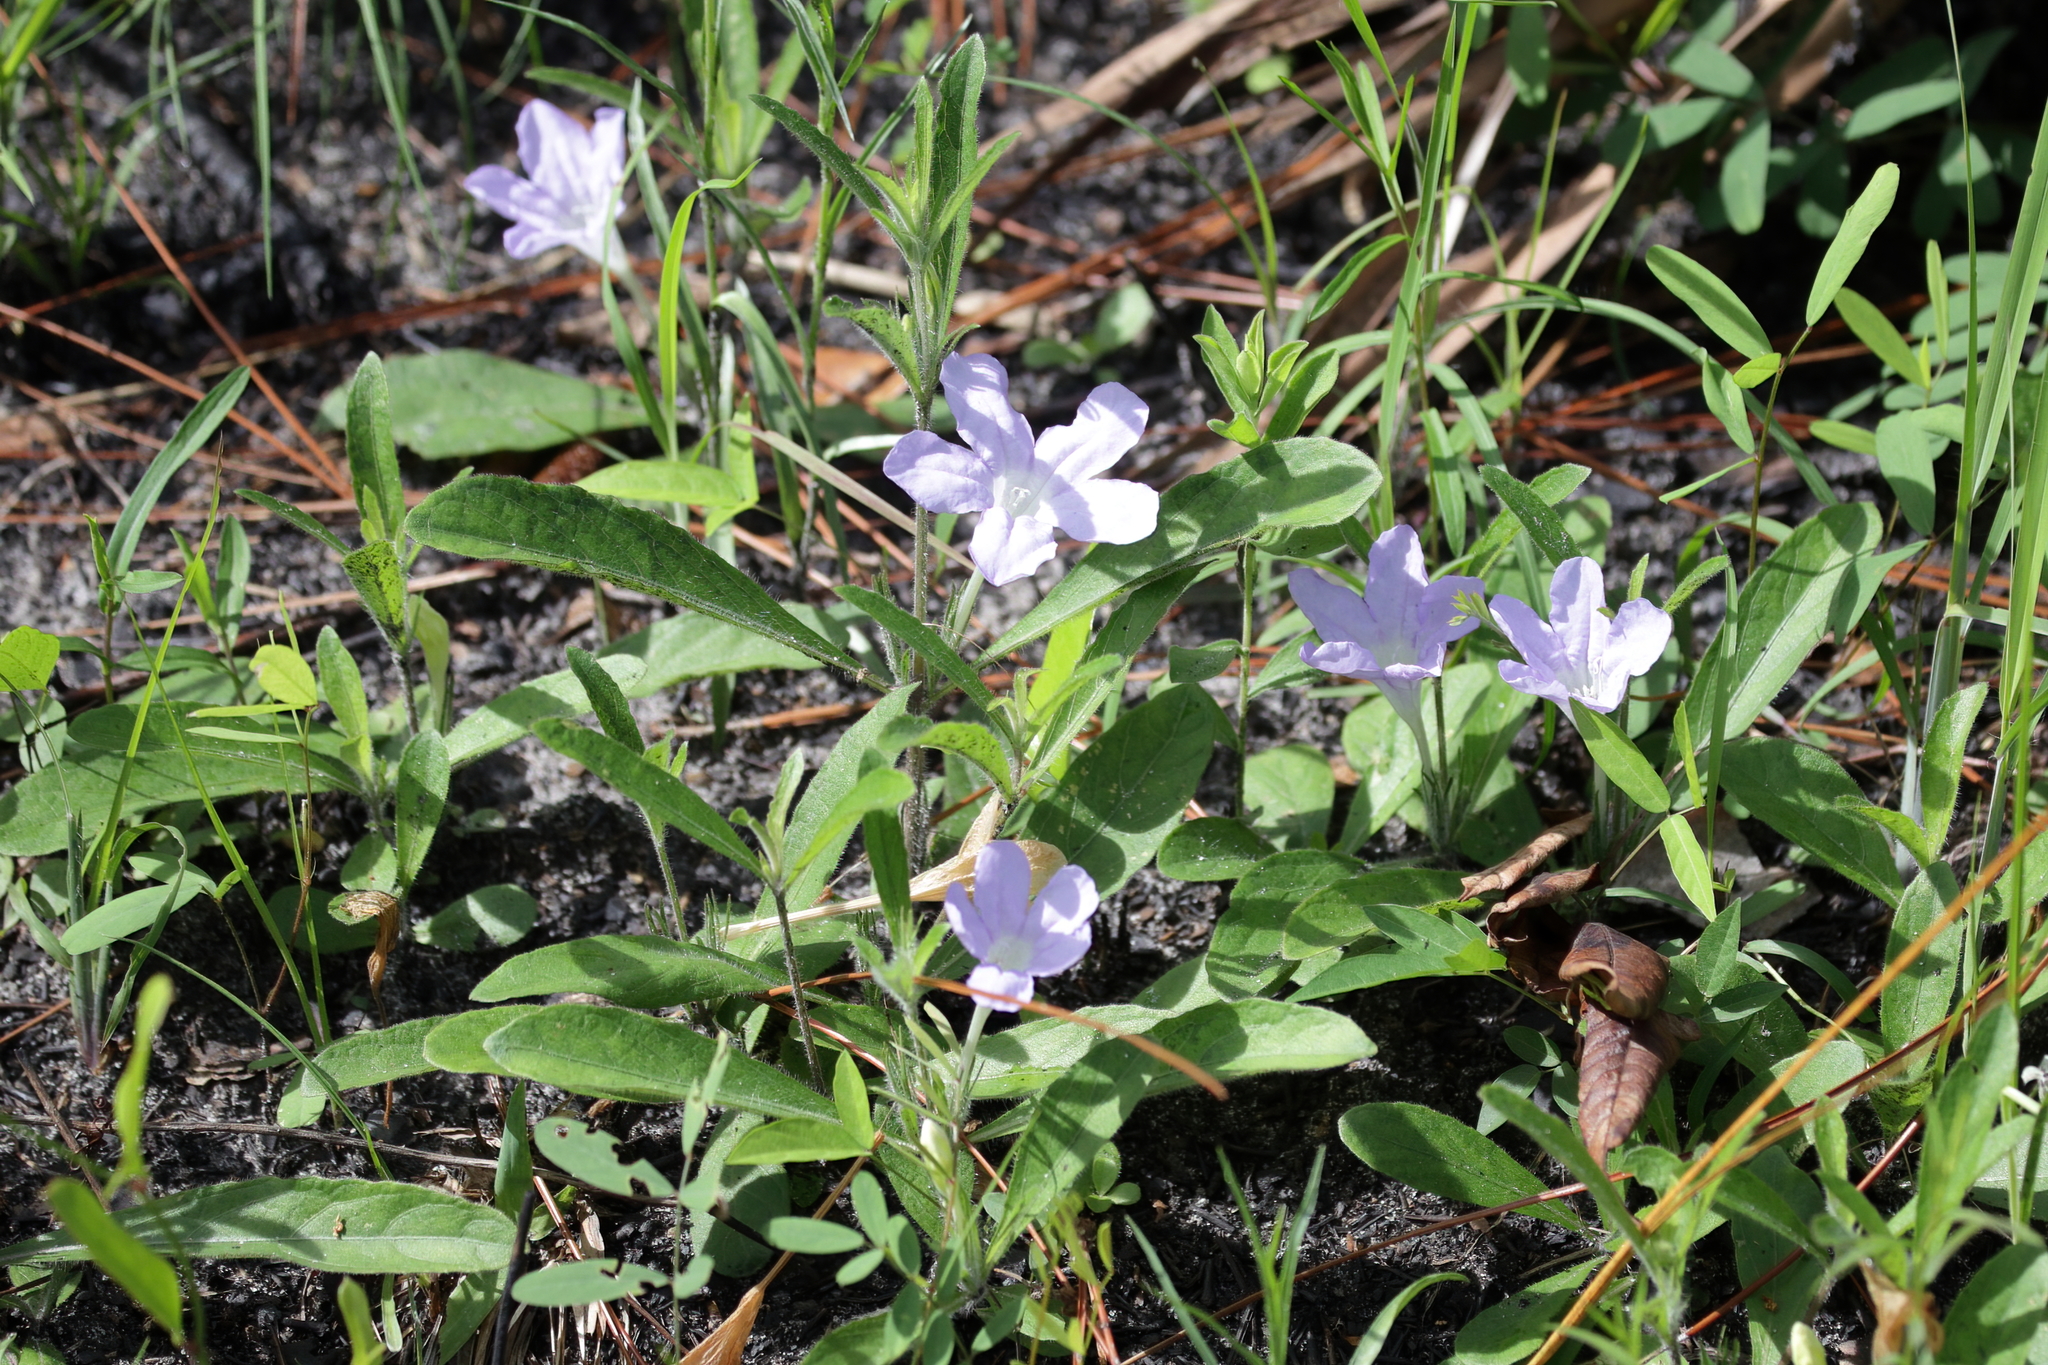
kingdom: Plantae
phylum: Tracheophyta
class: Magnoliopsida
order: Lamiales
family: Acanthaceae
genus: Ruellia
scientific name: Ruellia caroliniensis
